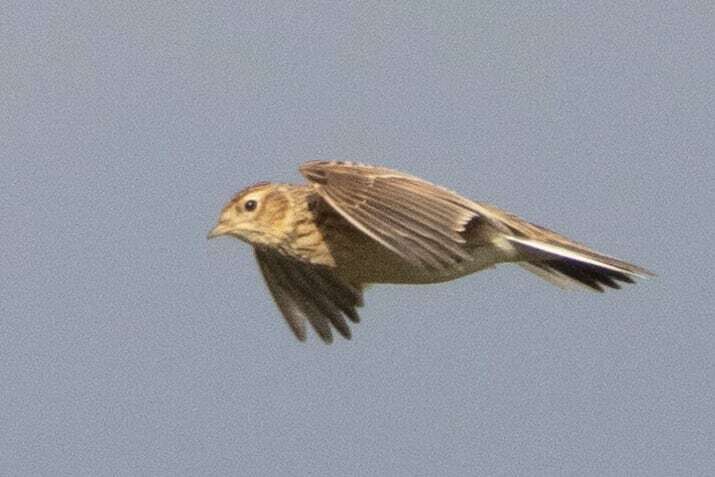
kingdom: Animalia
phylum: Chordata
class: Aves
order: Passeriformes
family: Alaudidae
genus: Alauda
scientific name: Alauda arvensis
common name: Eurasian skylark
